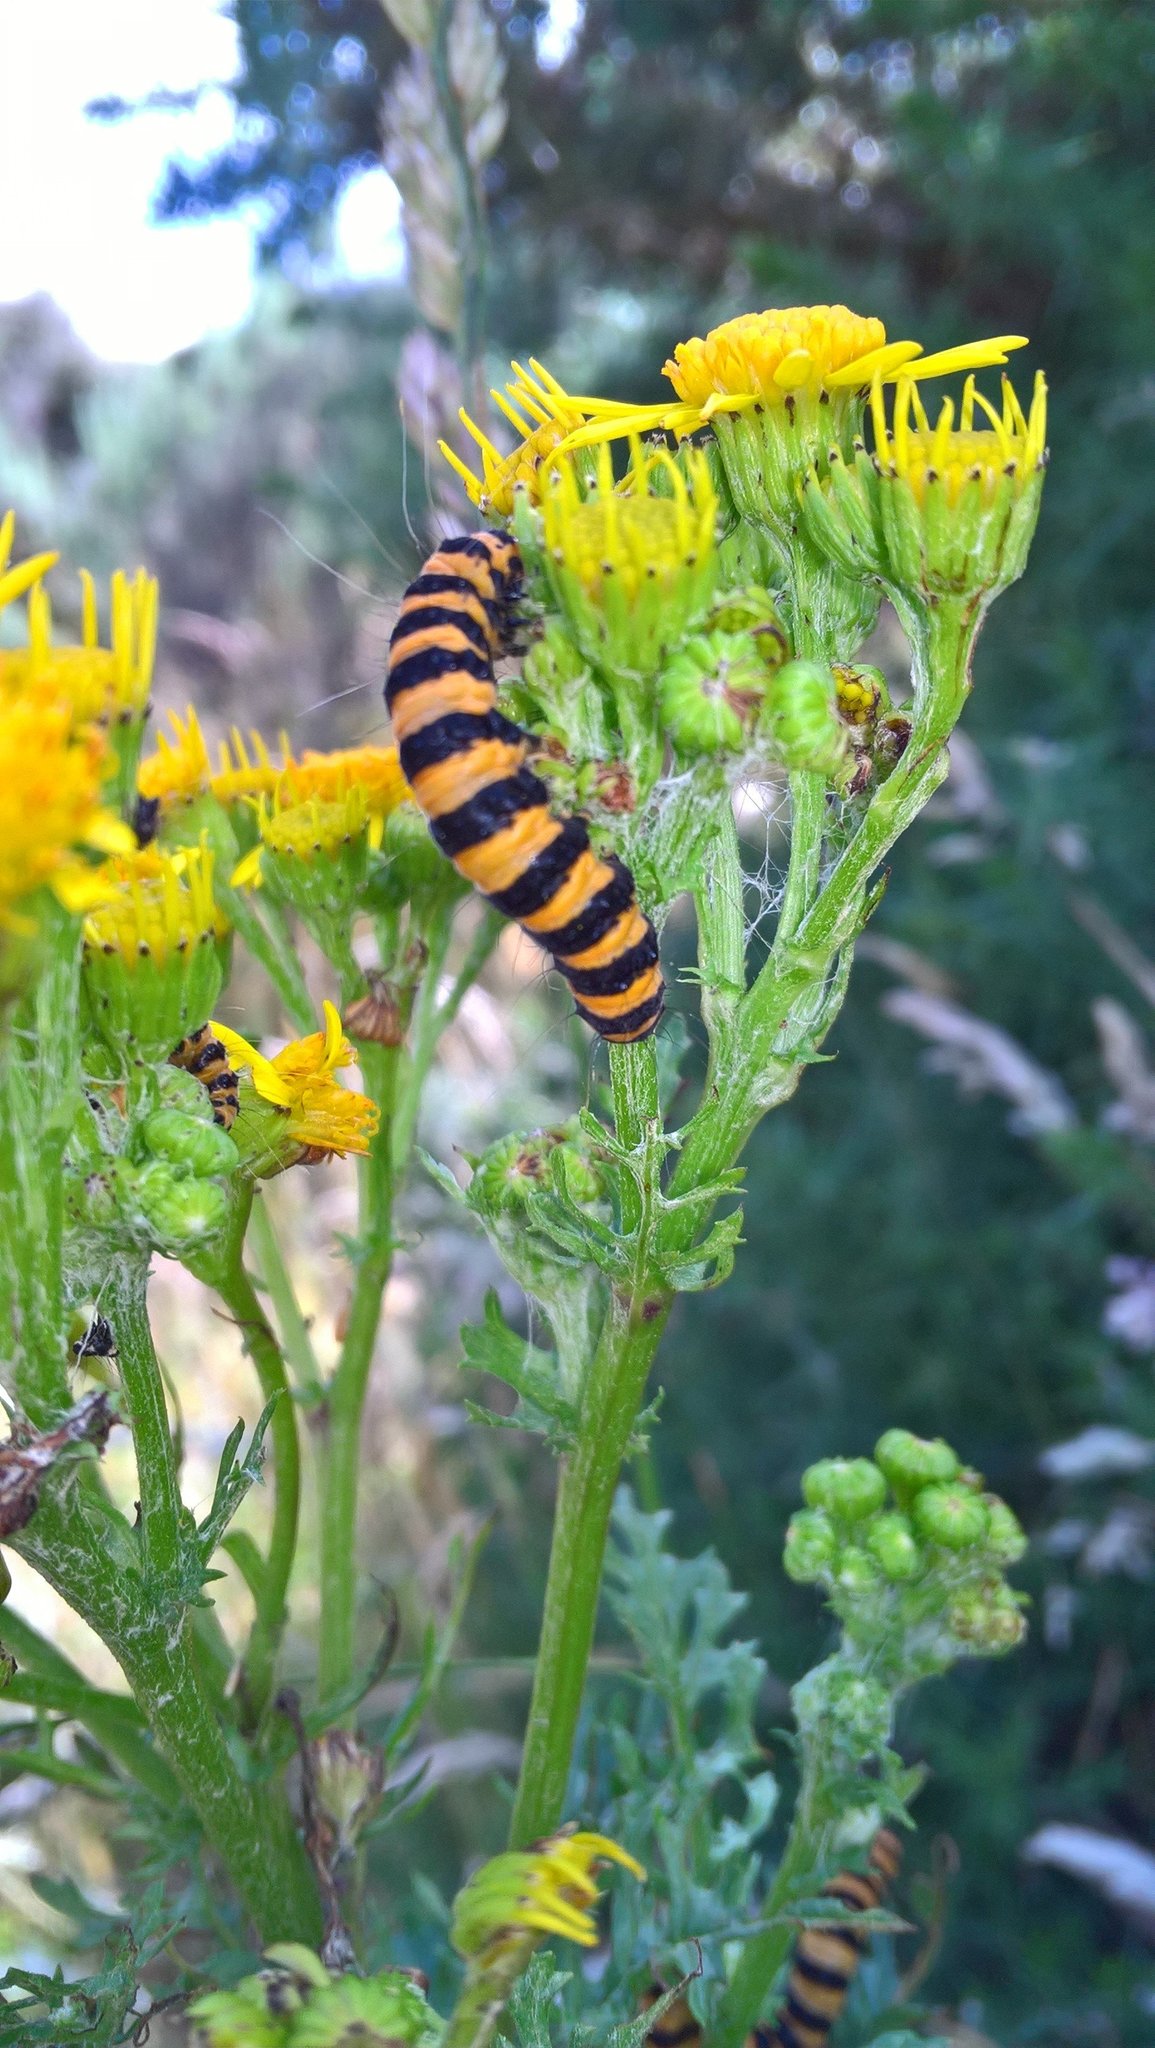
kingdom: Animalia
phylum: Arthropoda
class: Insecta
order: Lepidoptera
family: Erebidae
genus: Tyria
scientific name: Tyria jacobaeae
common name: Cinnabar
